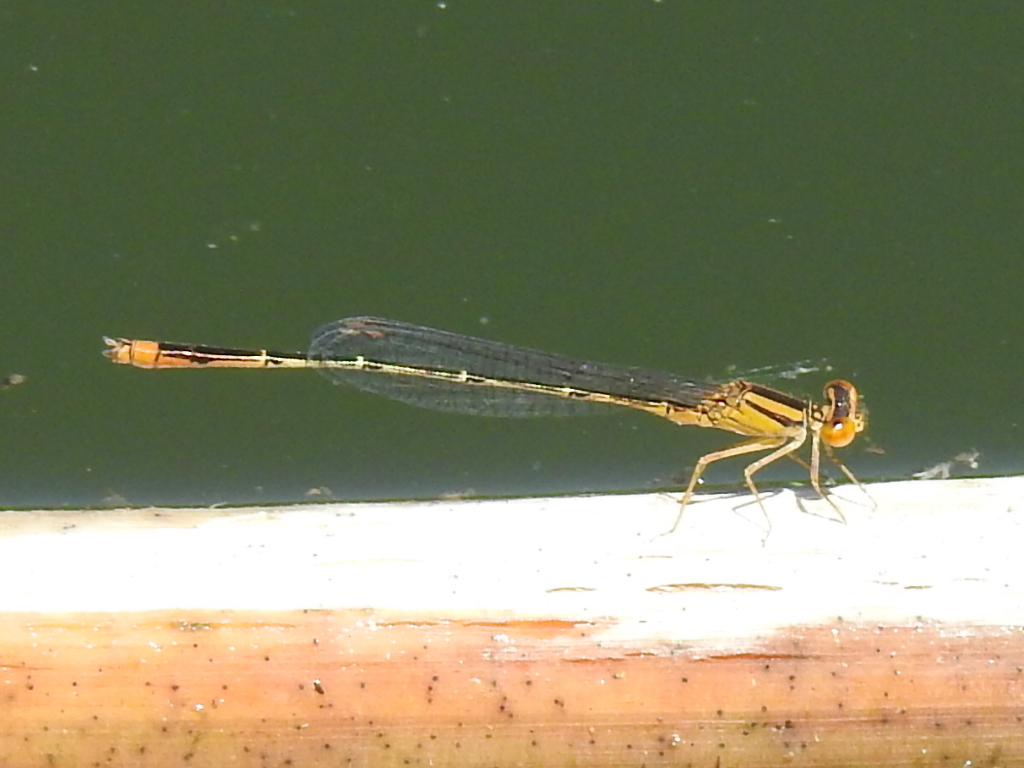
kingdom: Animalia
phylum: Arthropoda
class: Insecta
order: Odonata
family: Coenagrionidae
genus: Enallagma
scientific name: Enallagma signatum
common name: Orange bluet
